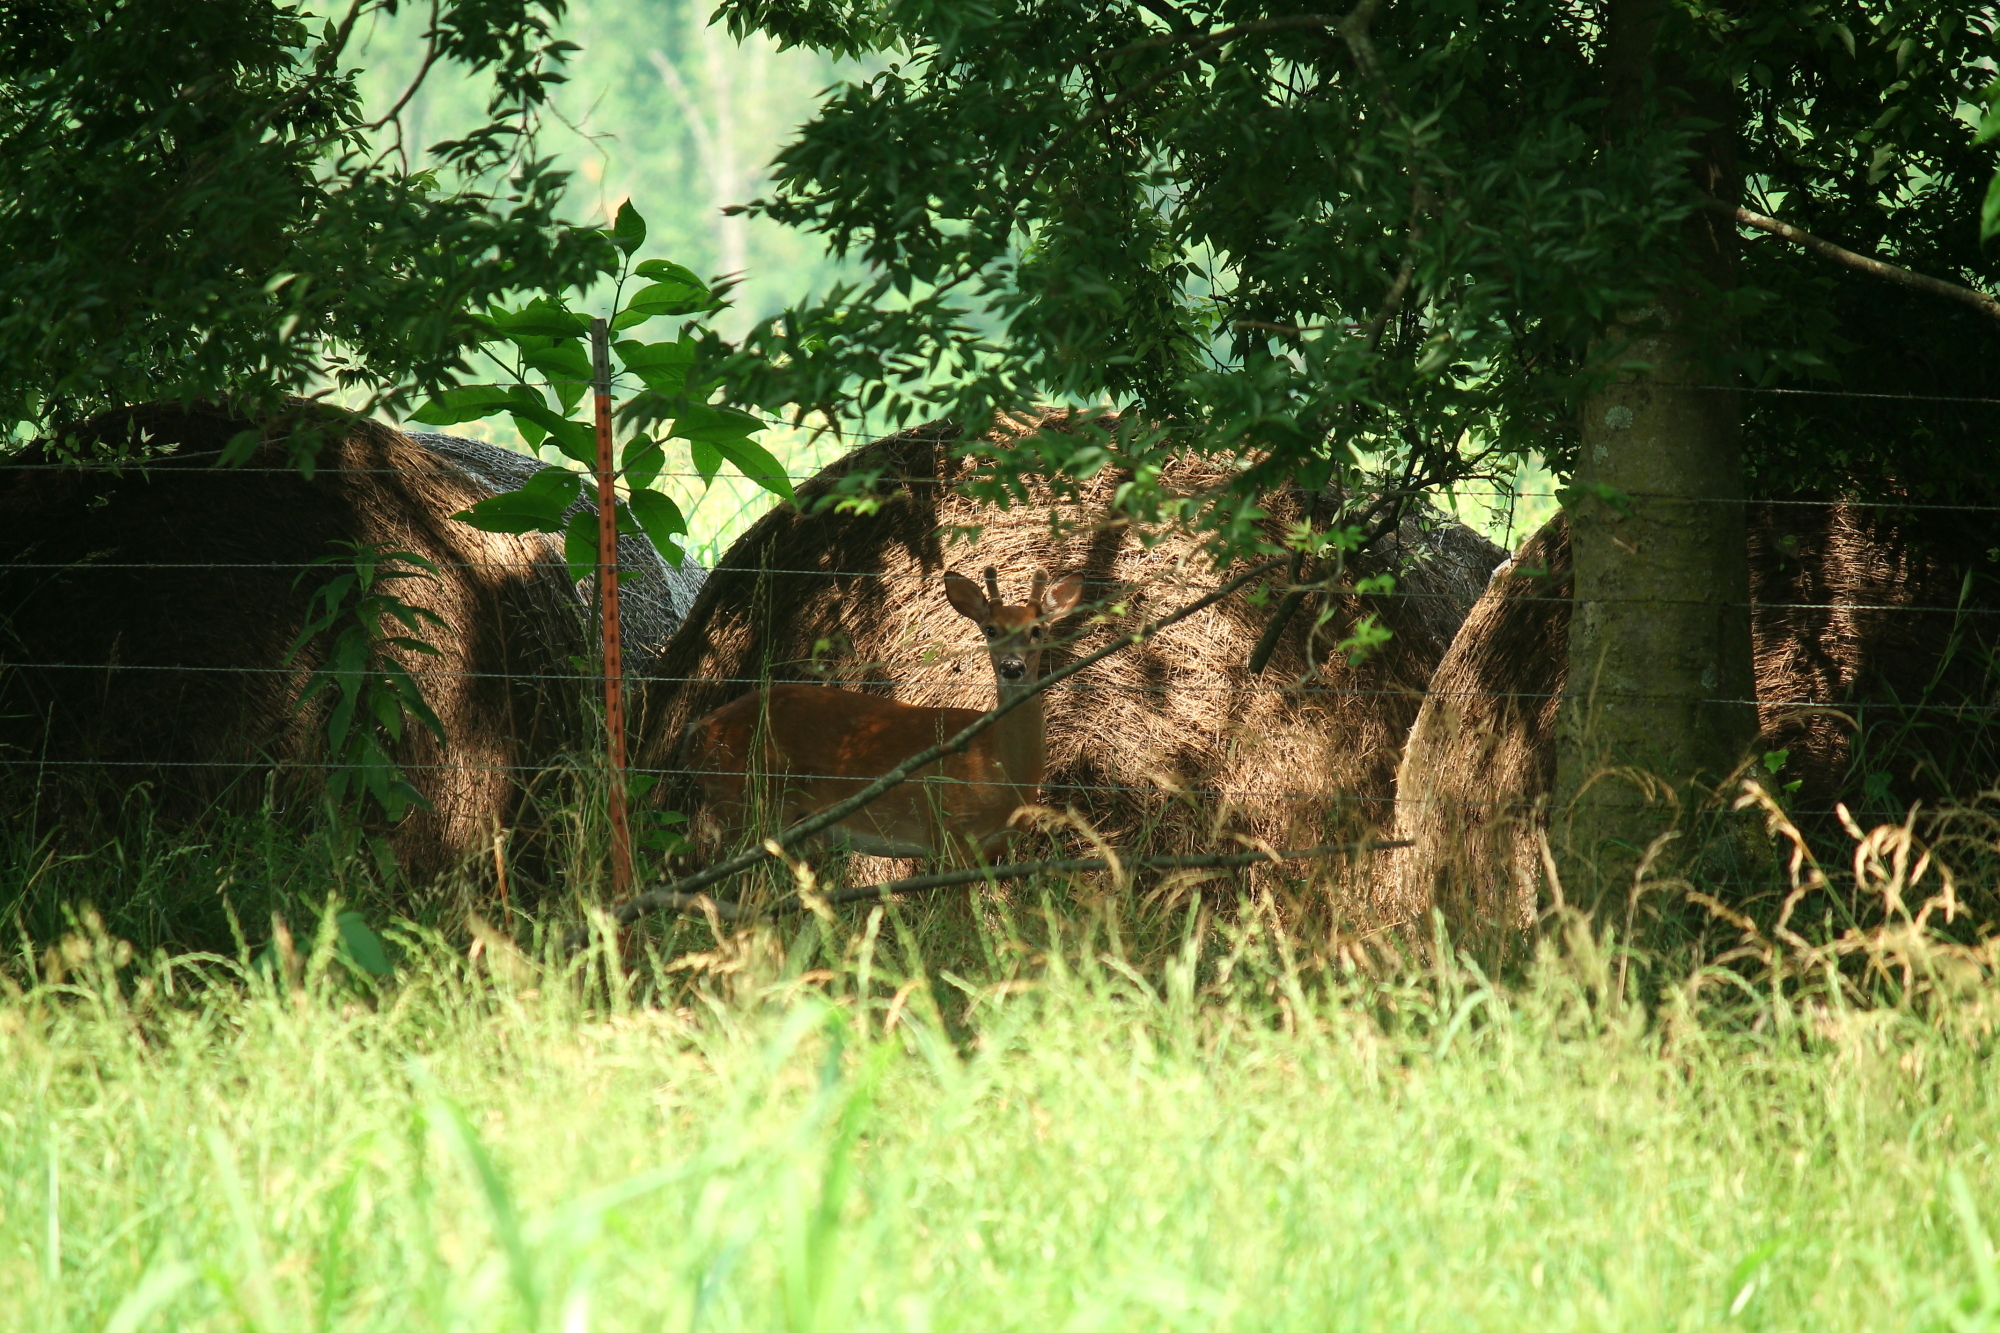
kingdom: Animalia
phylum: Chordata
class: Mammalia
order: Artiodactyla
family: Cervidae
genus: Odocoileus
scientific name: Odocoileus virginianus
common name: White-tailed deer
